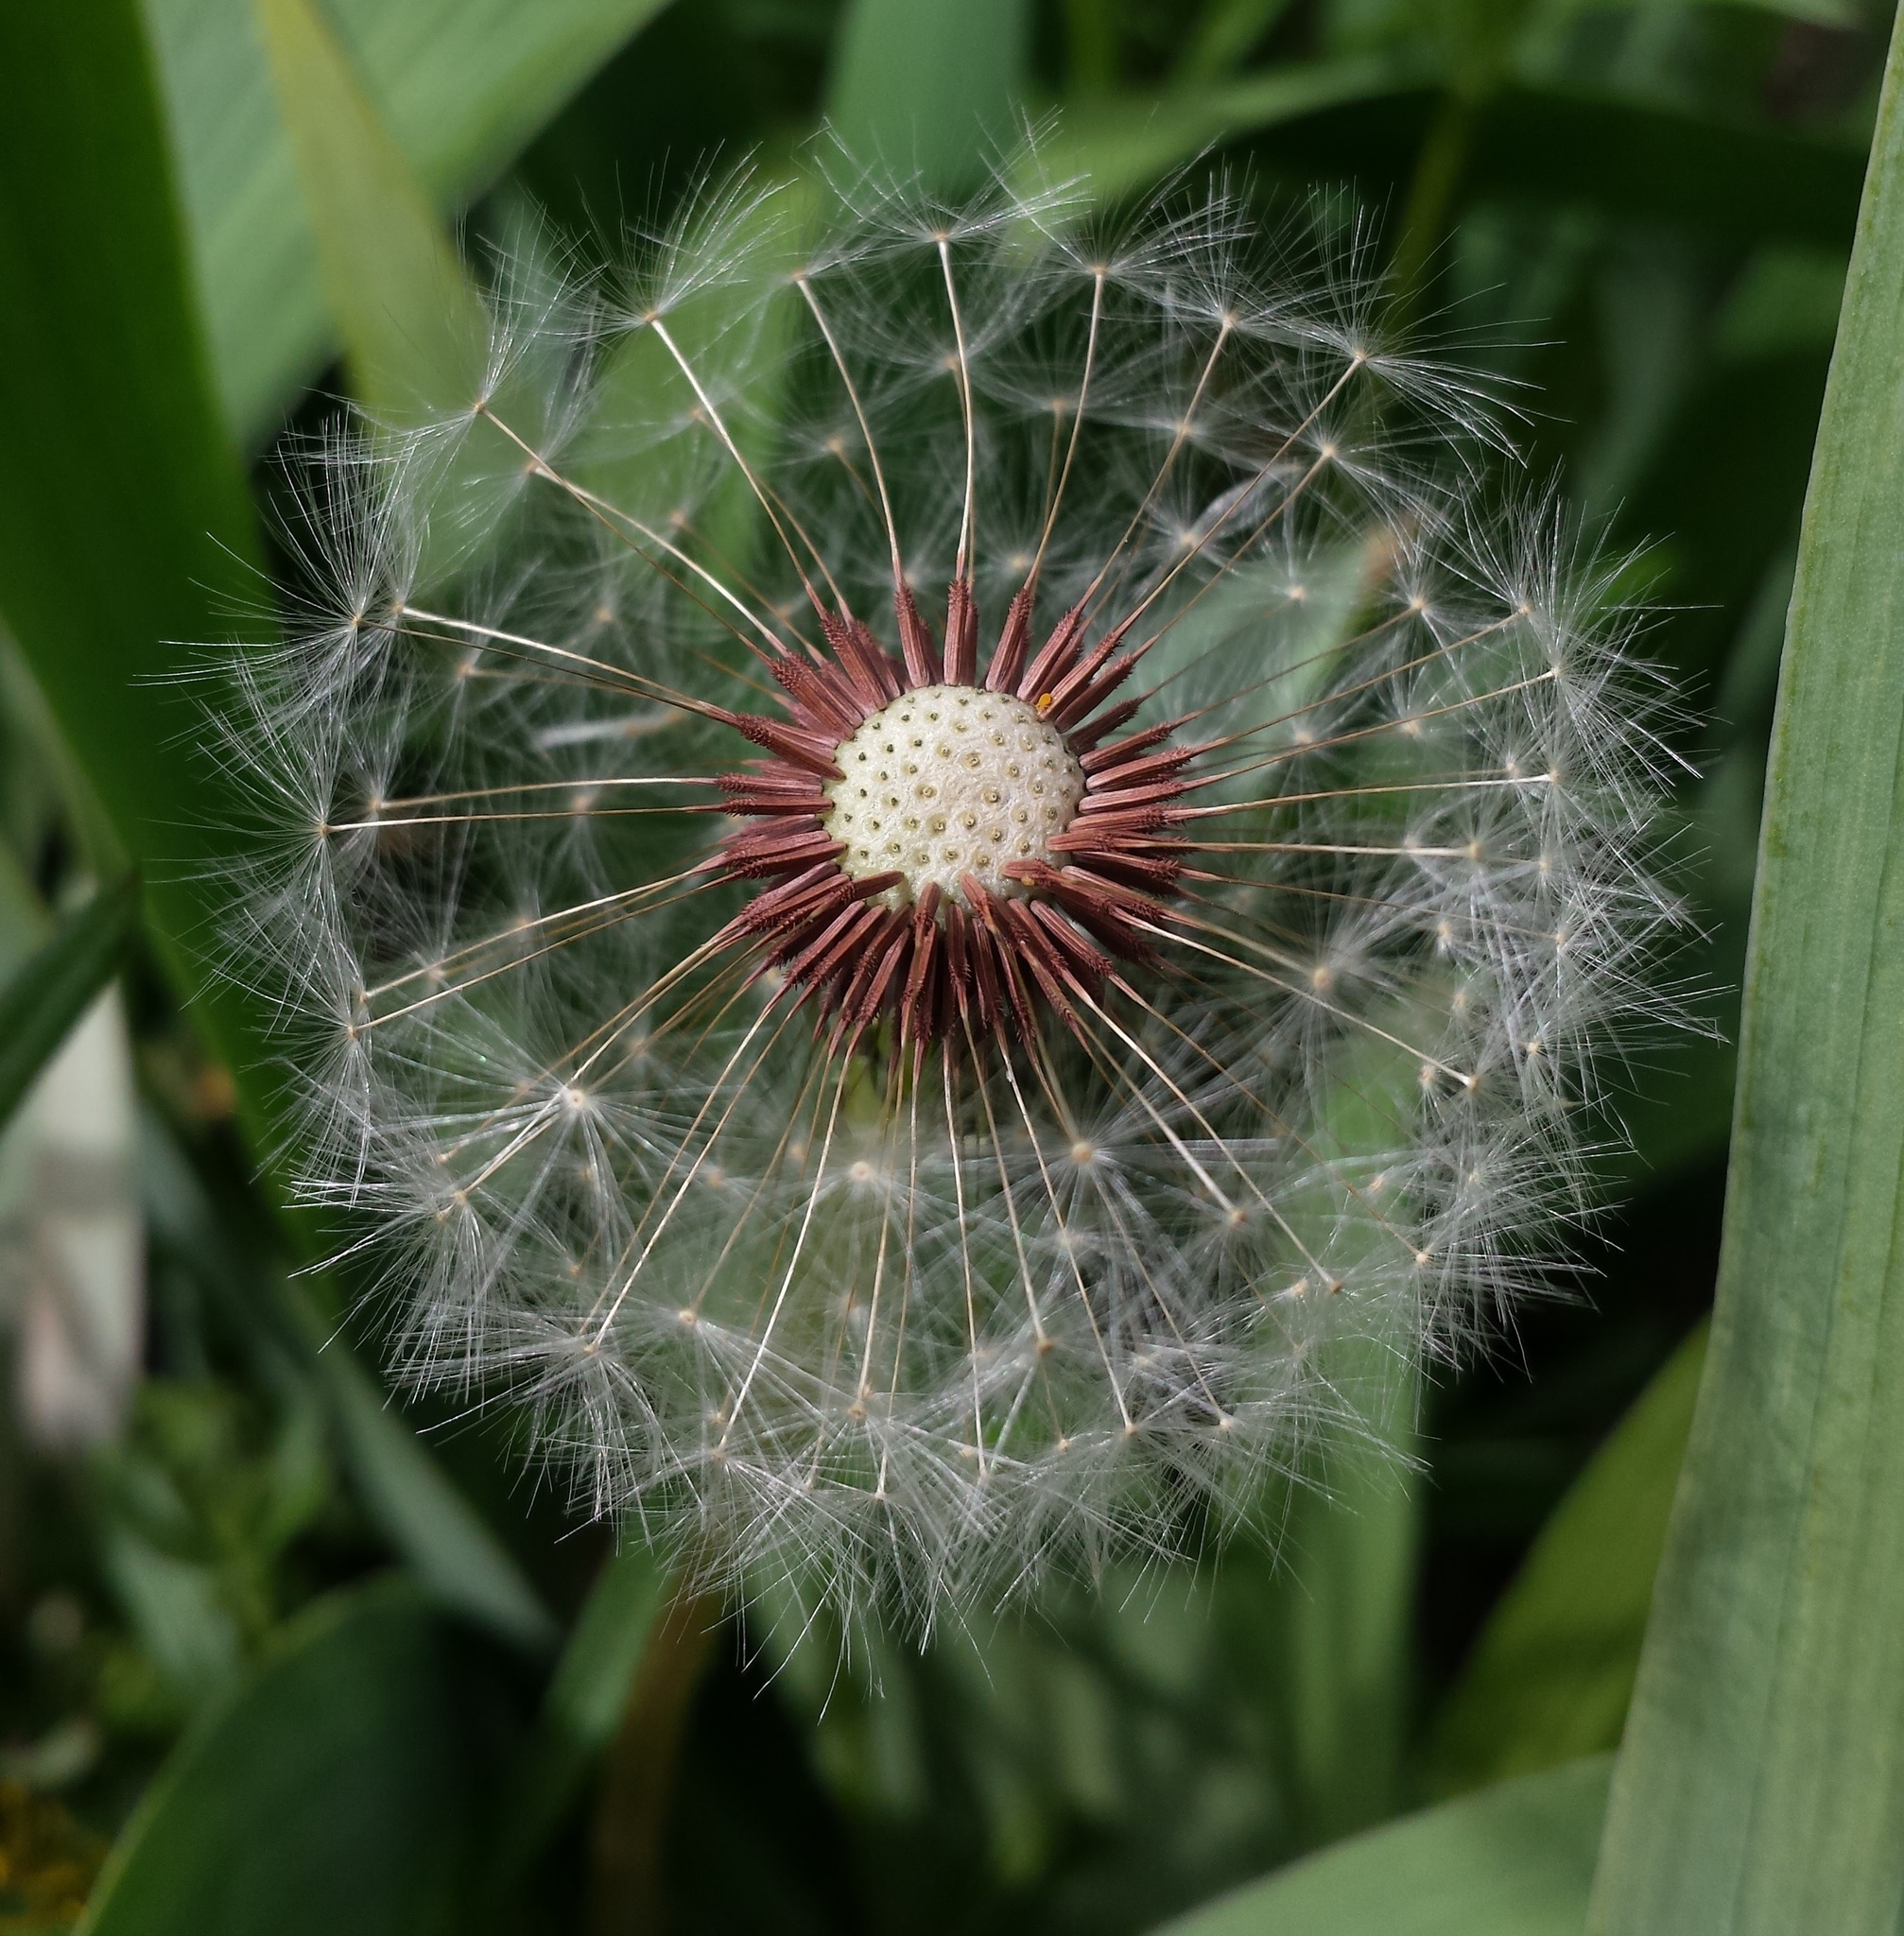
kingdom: Plantae
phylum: Tracheophyta
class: Magnoliopsida
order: Asterales
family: Asteraceae
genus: Taraxacum
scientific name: Taraxacum erythrospermum
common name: Rock dandelion
